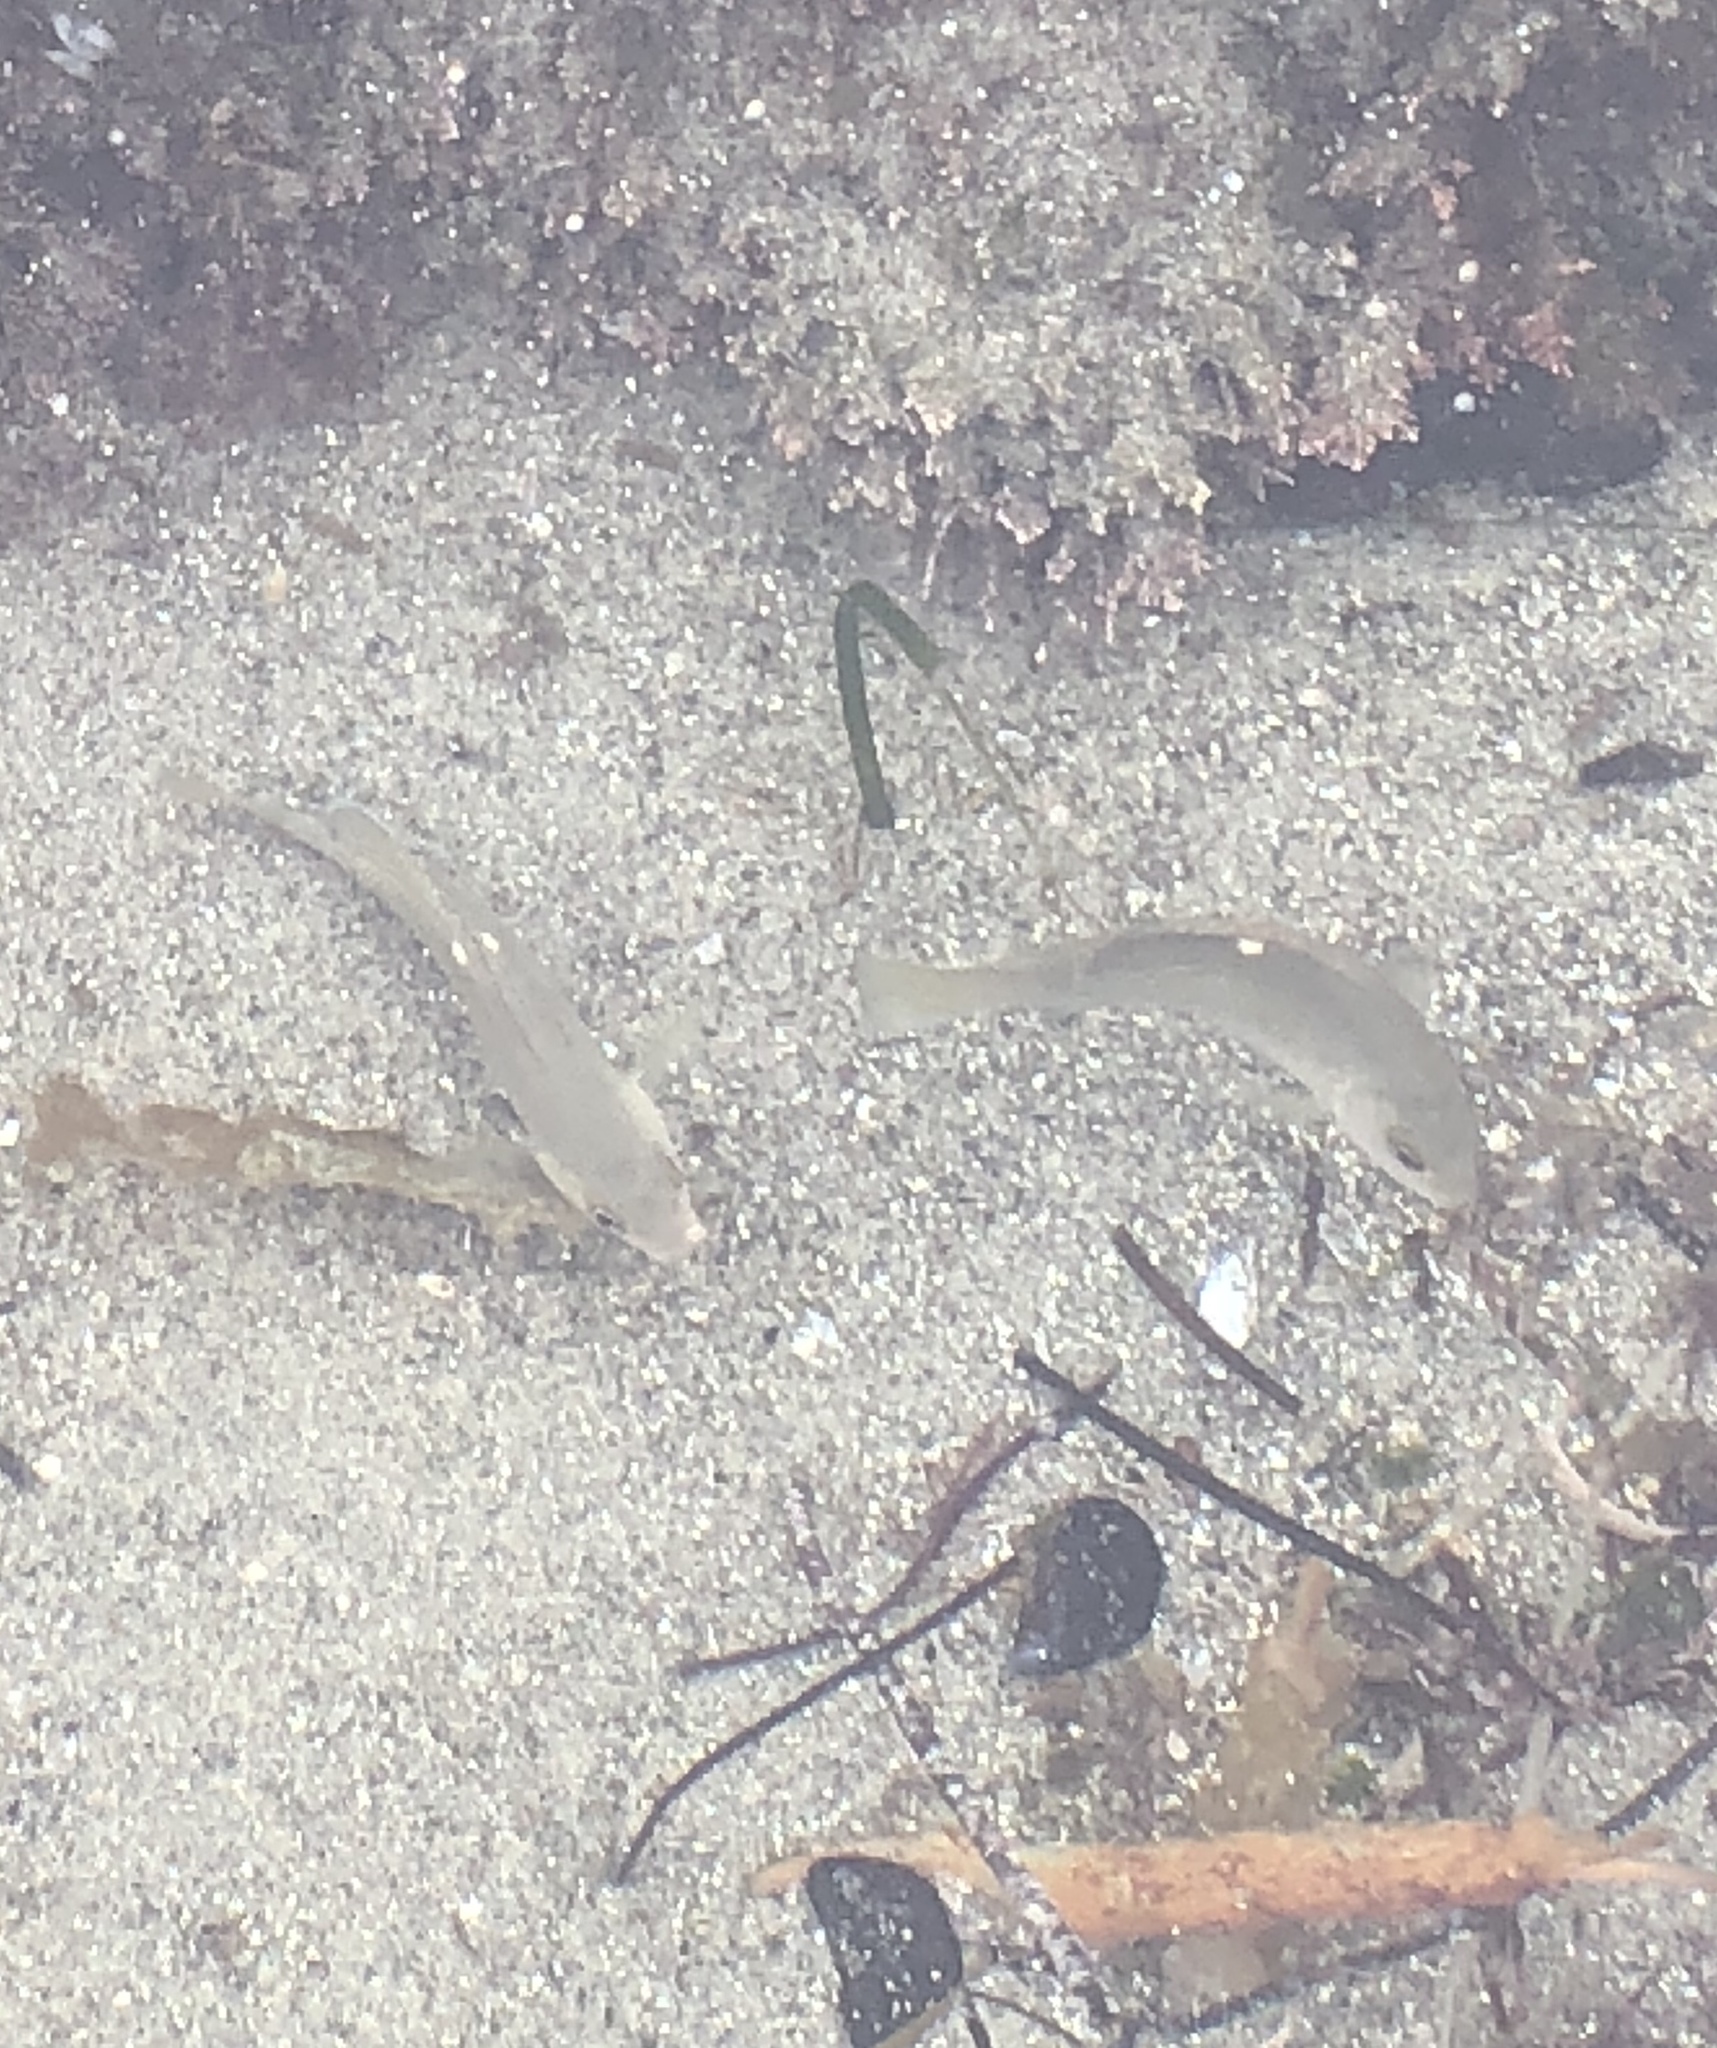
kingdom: Animalia
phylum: Chordata
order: Perciformes
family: Kyphosidae
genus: Girella
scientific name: Girella nigricans
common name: Opaleye
